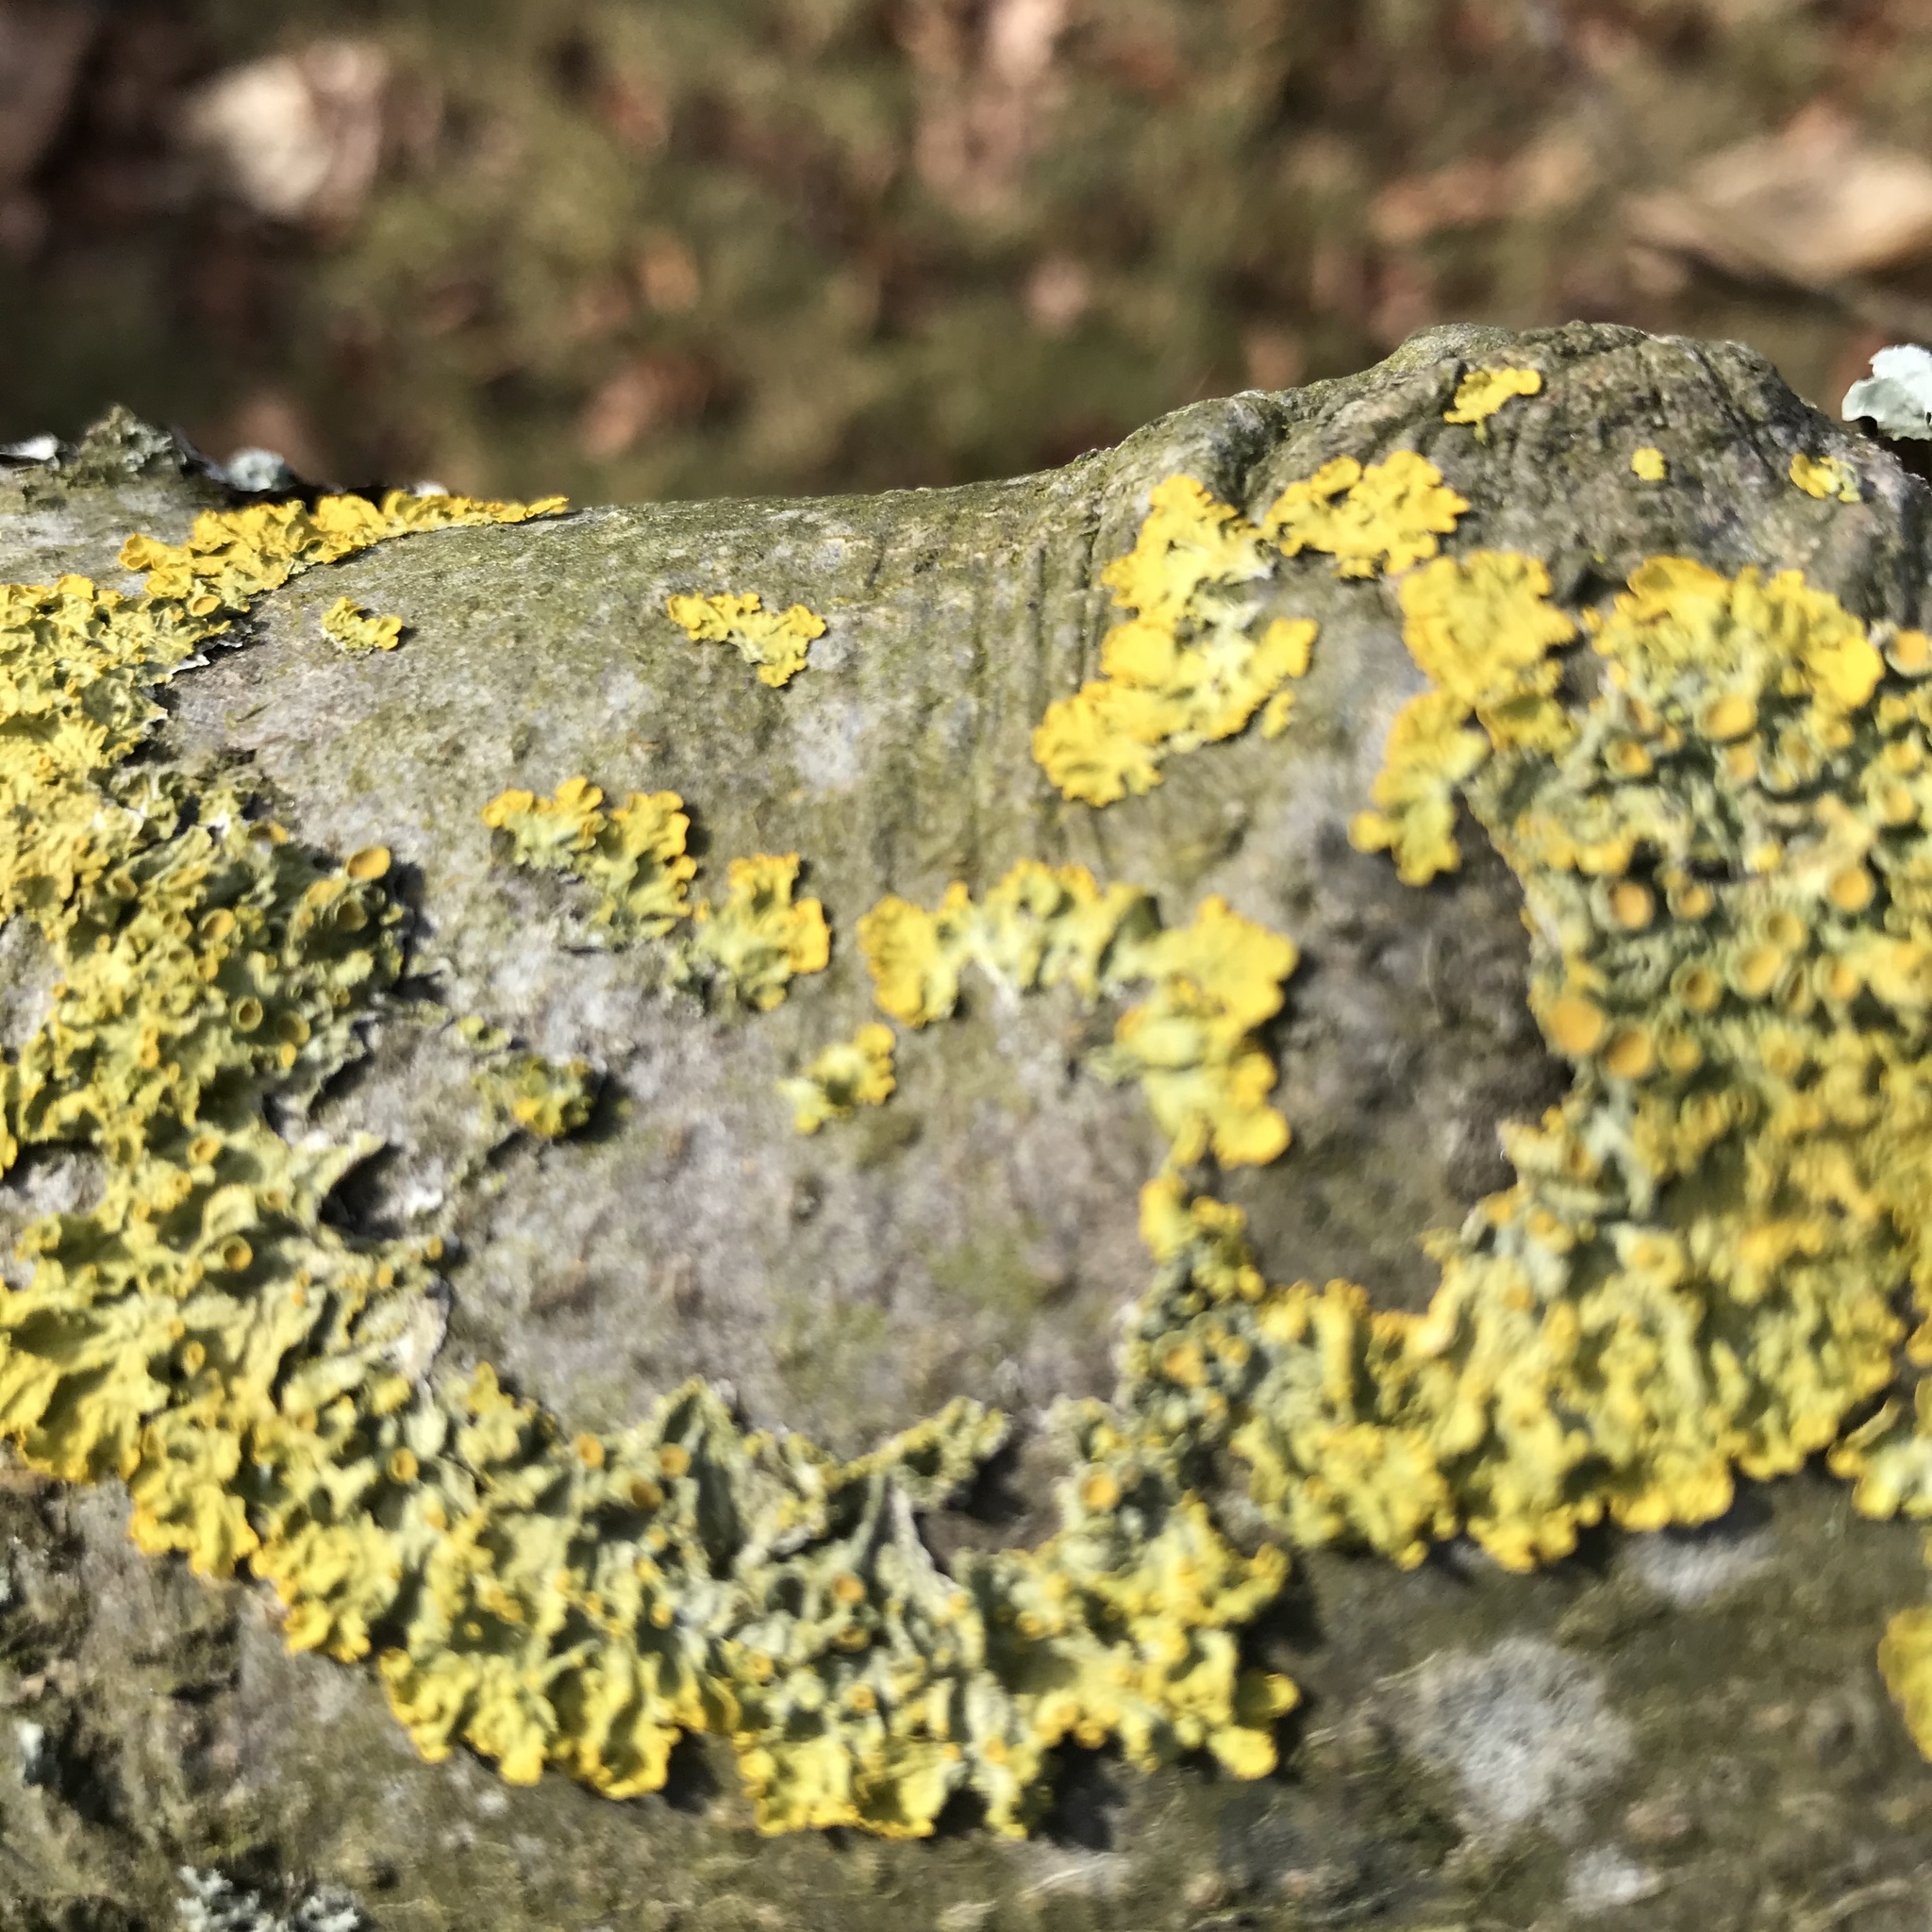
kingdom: Fungi
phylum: Ascomycota
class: Lecanoromycetes
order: Teloschistales
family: Teloschistaceae
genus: Xanthoria
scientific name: Xanthoria parietina
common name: Common orange lichen
